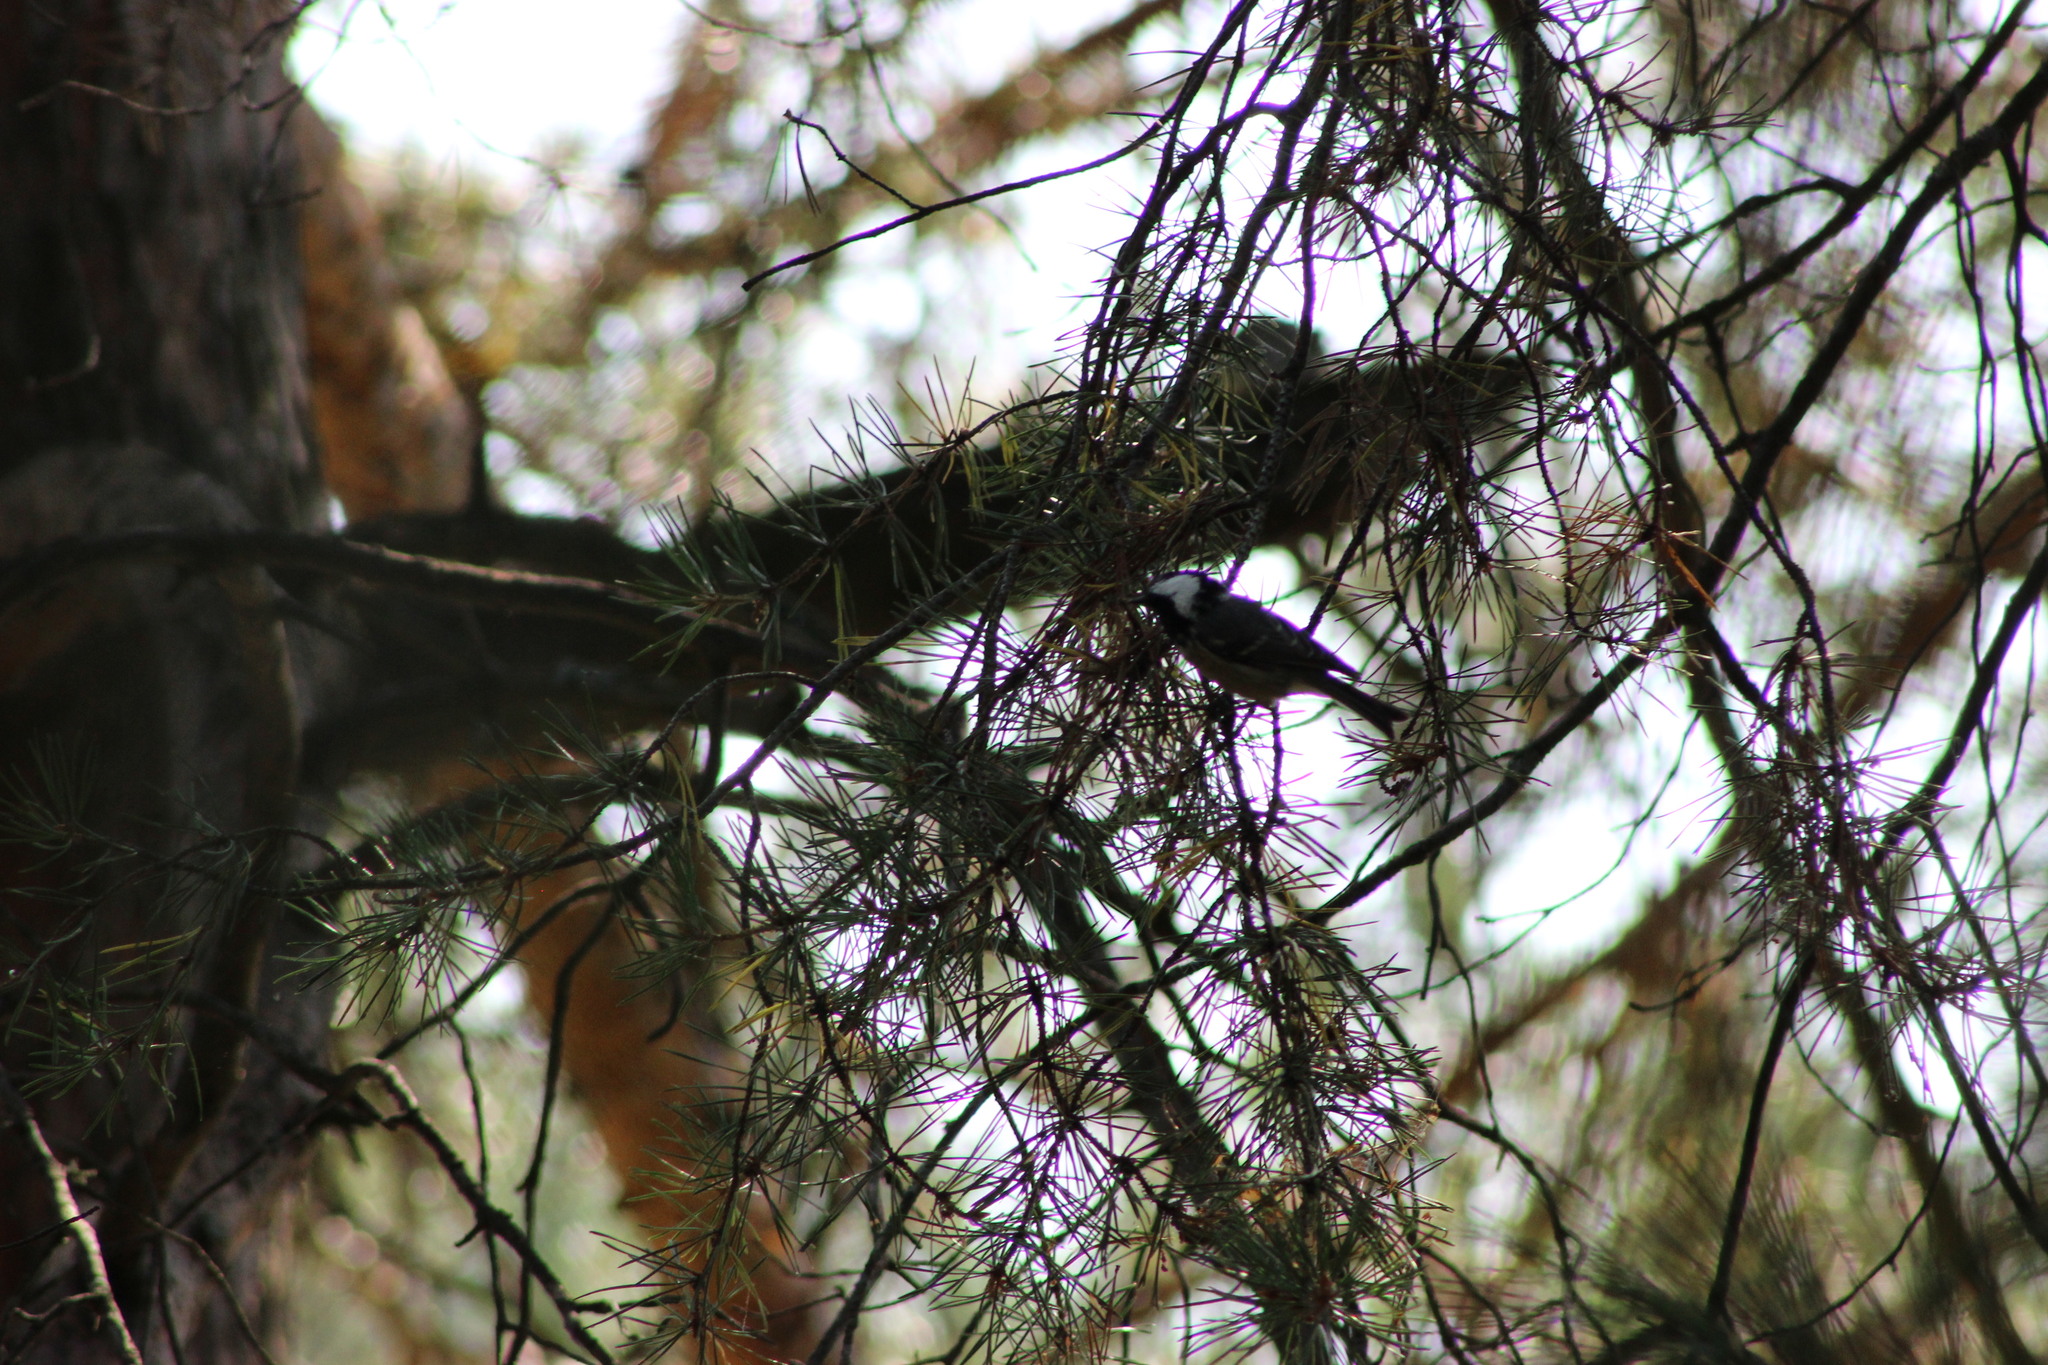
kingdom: Animalia
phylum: Chordata
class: Aves
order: Passeriformes
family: Paridae
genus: Periparus
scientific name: Periparus ater
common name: Coal tit
